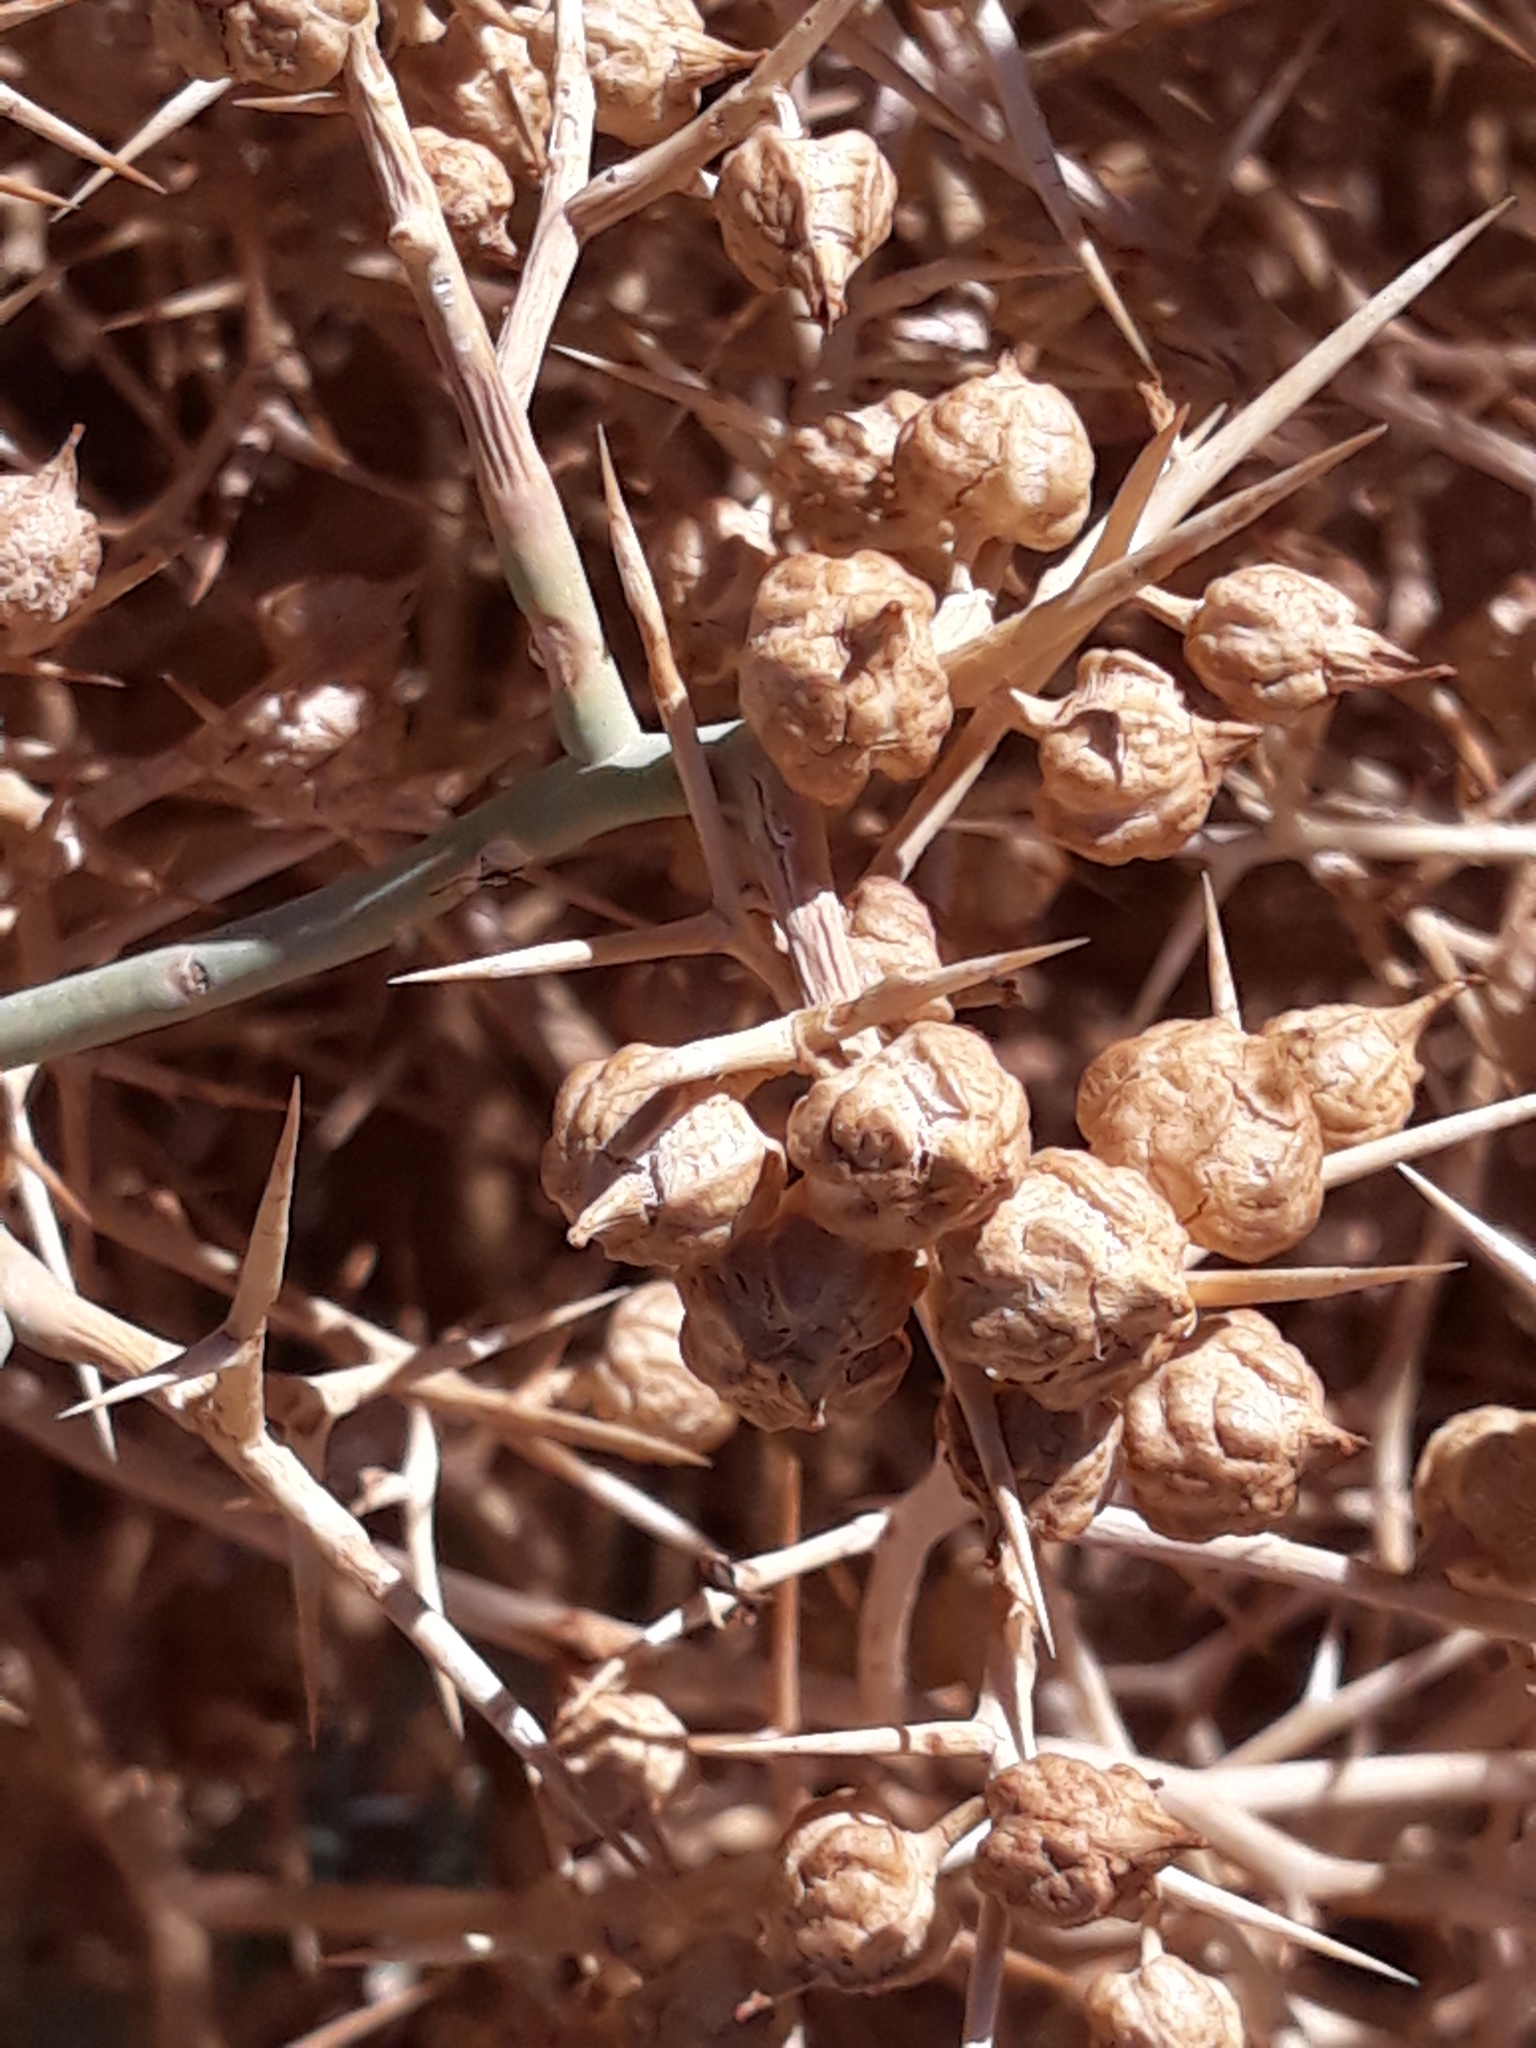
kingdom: Plantae
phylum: Tracheophyta
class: Magnoliopsida
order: Brassicales
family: Brassicaceae
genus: Zilla
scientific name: Zilla spinosa
